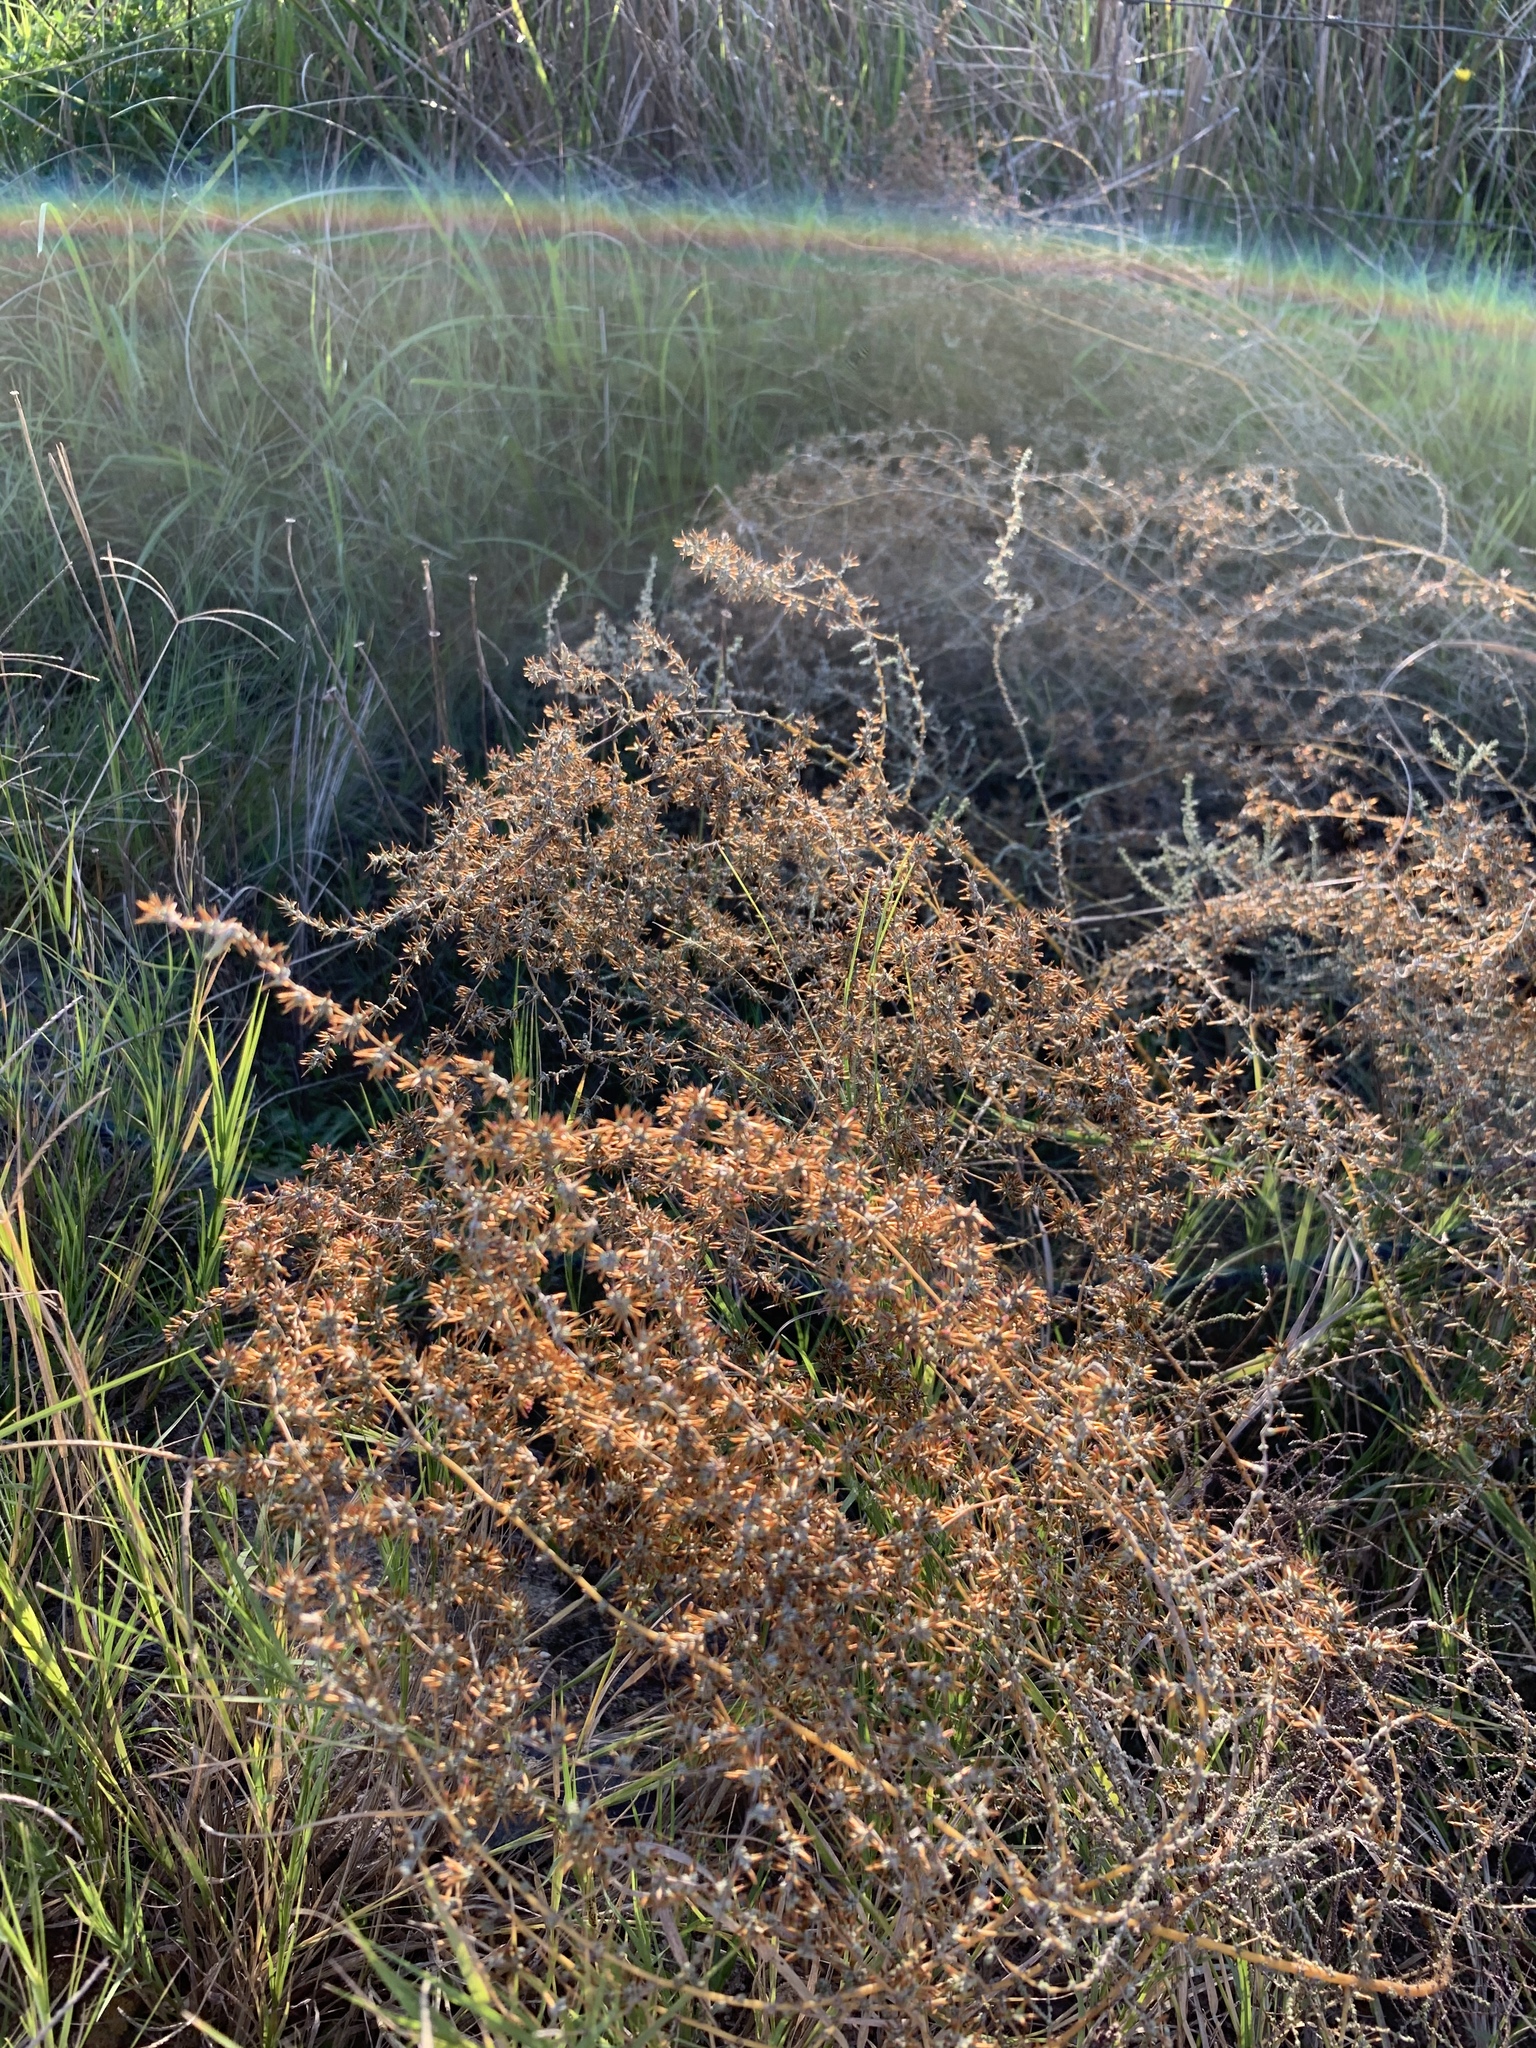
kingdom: Plantae
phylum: Tracheophyta
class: Magnoliopsida
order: Asterales
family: Asteraceae
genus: Seriphium
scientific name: Seriphium plumosum
